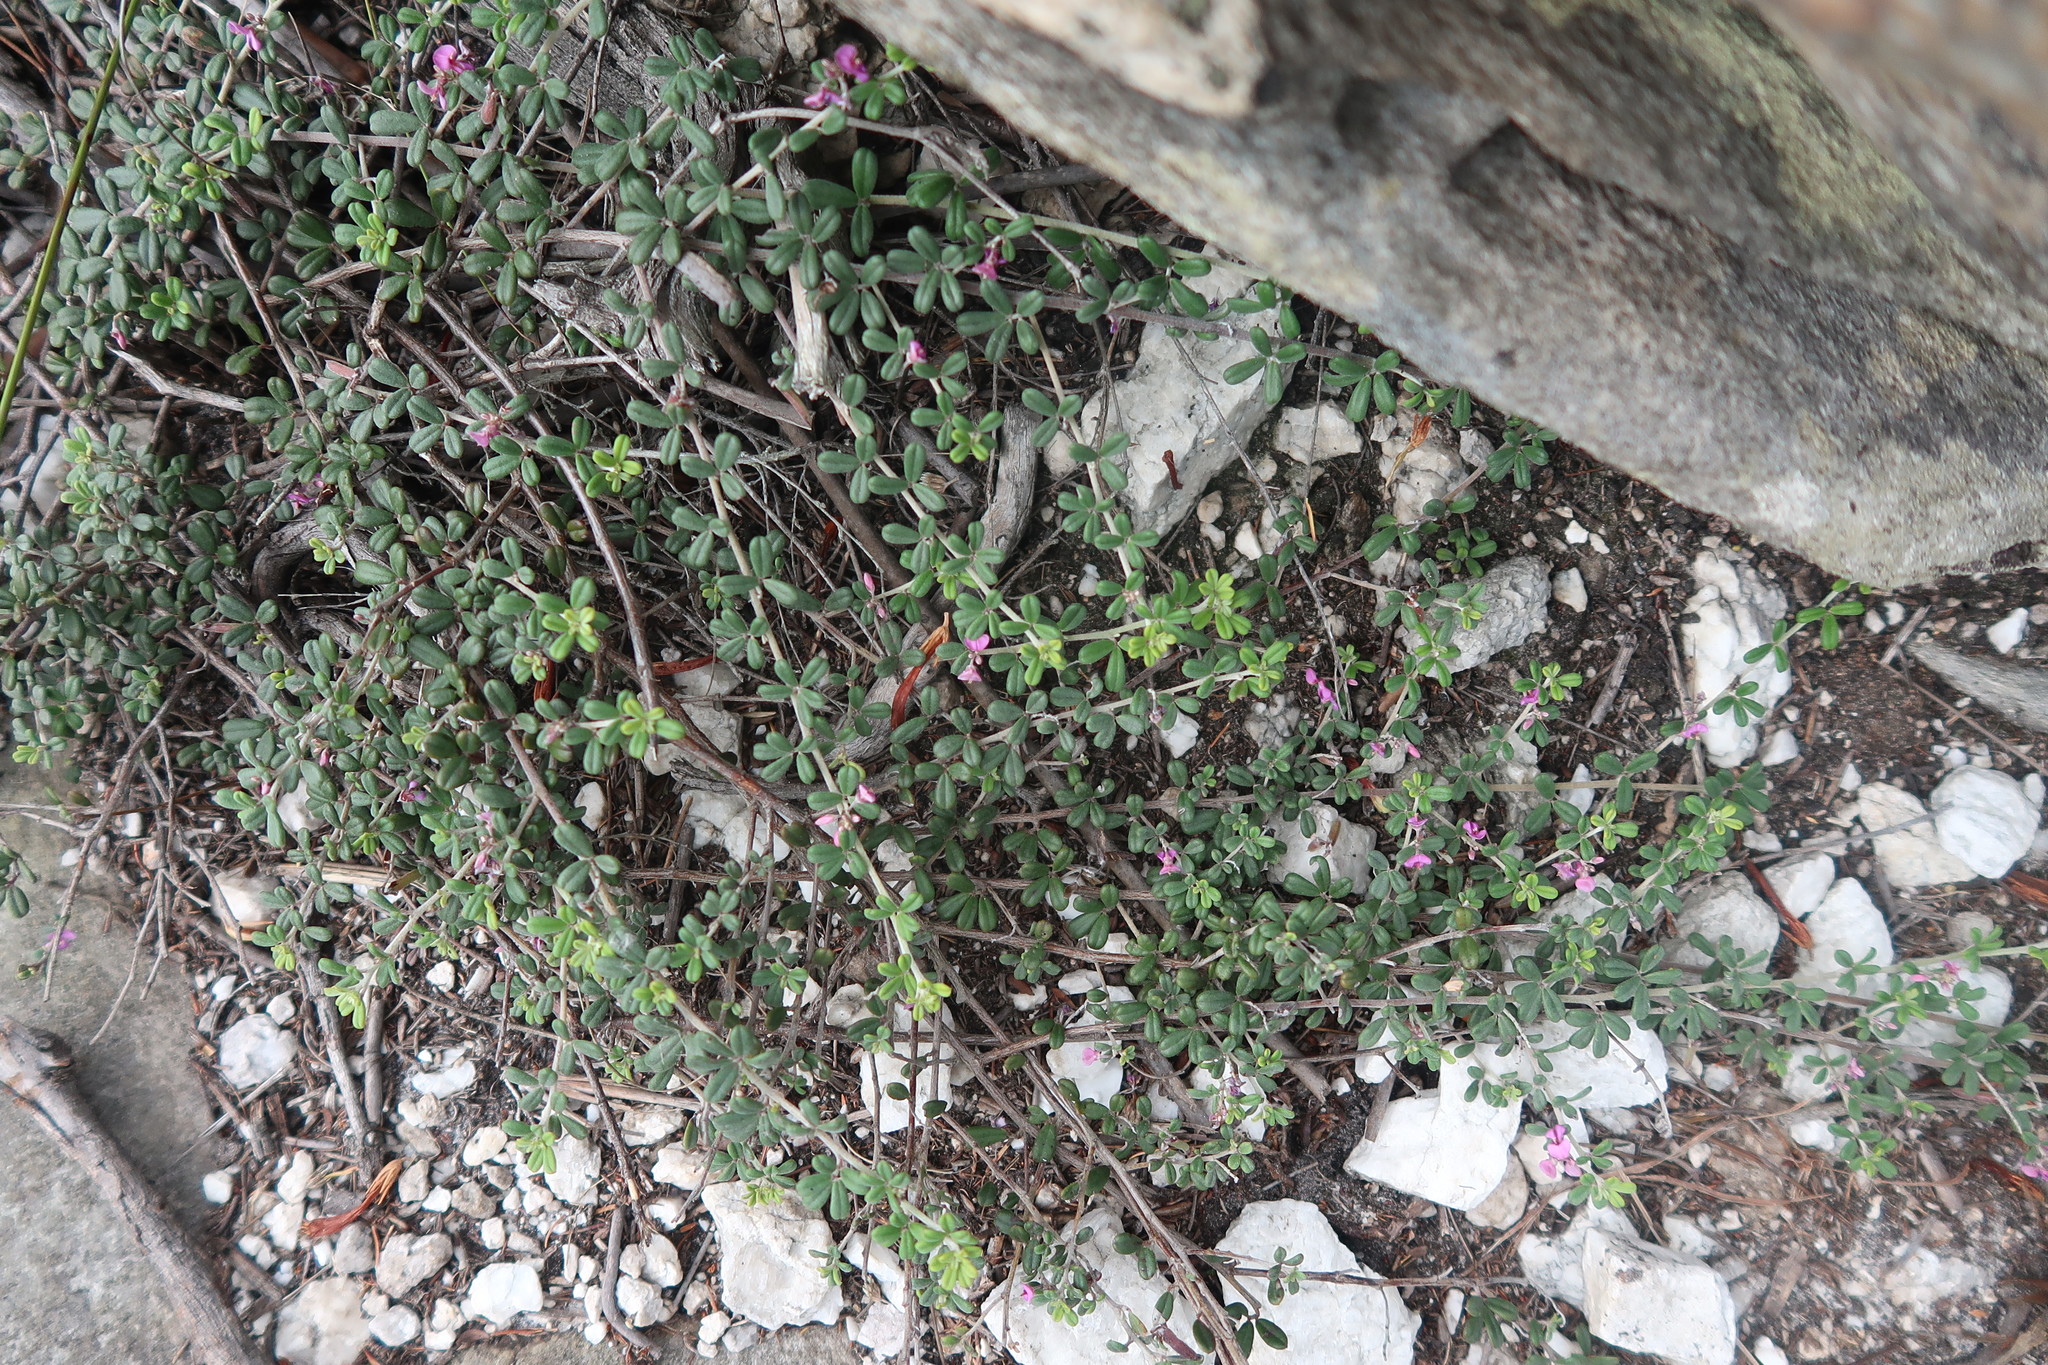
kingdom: Plantae
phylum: Tracheophyta
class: Magnoliopsida
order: Fabales
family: Fabaceae
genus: Indigofera
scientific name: Indigofera
